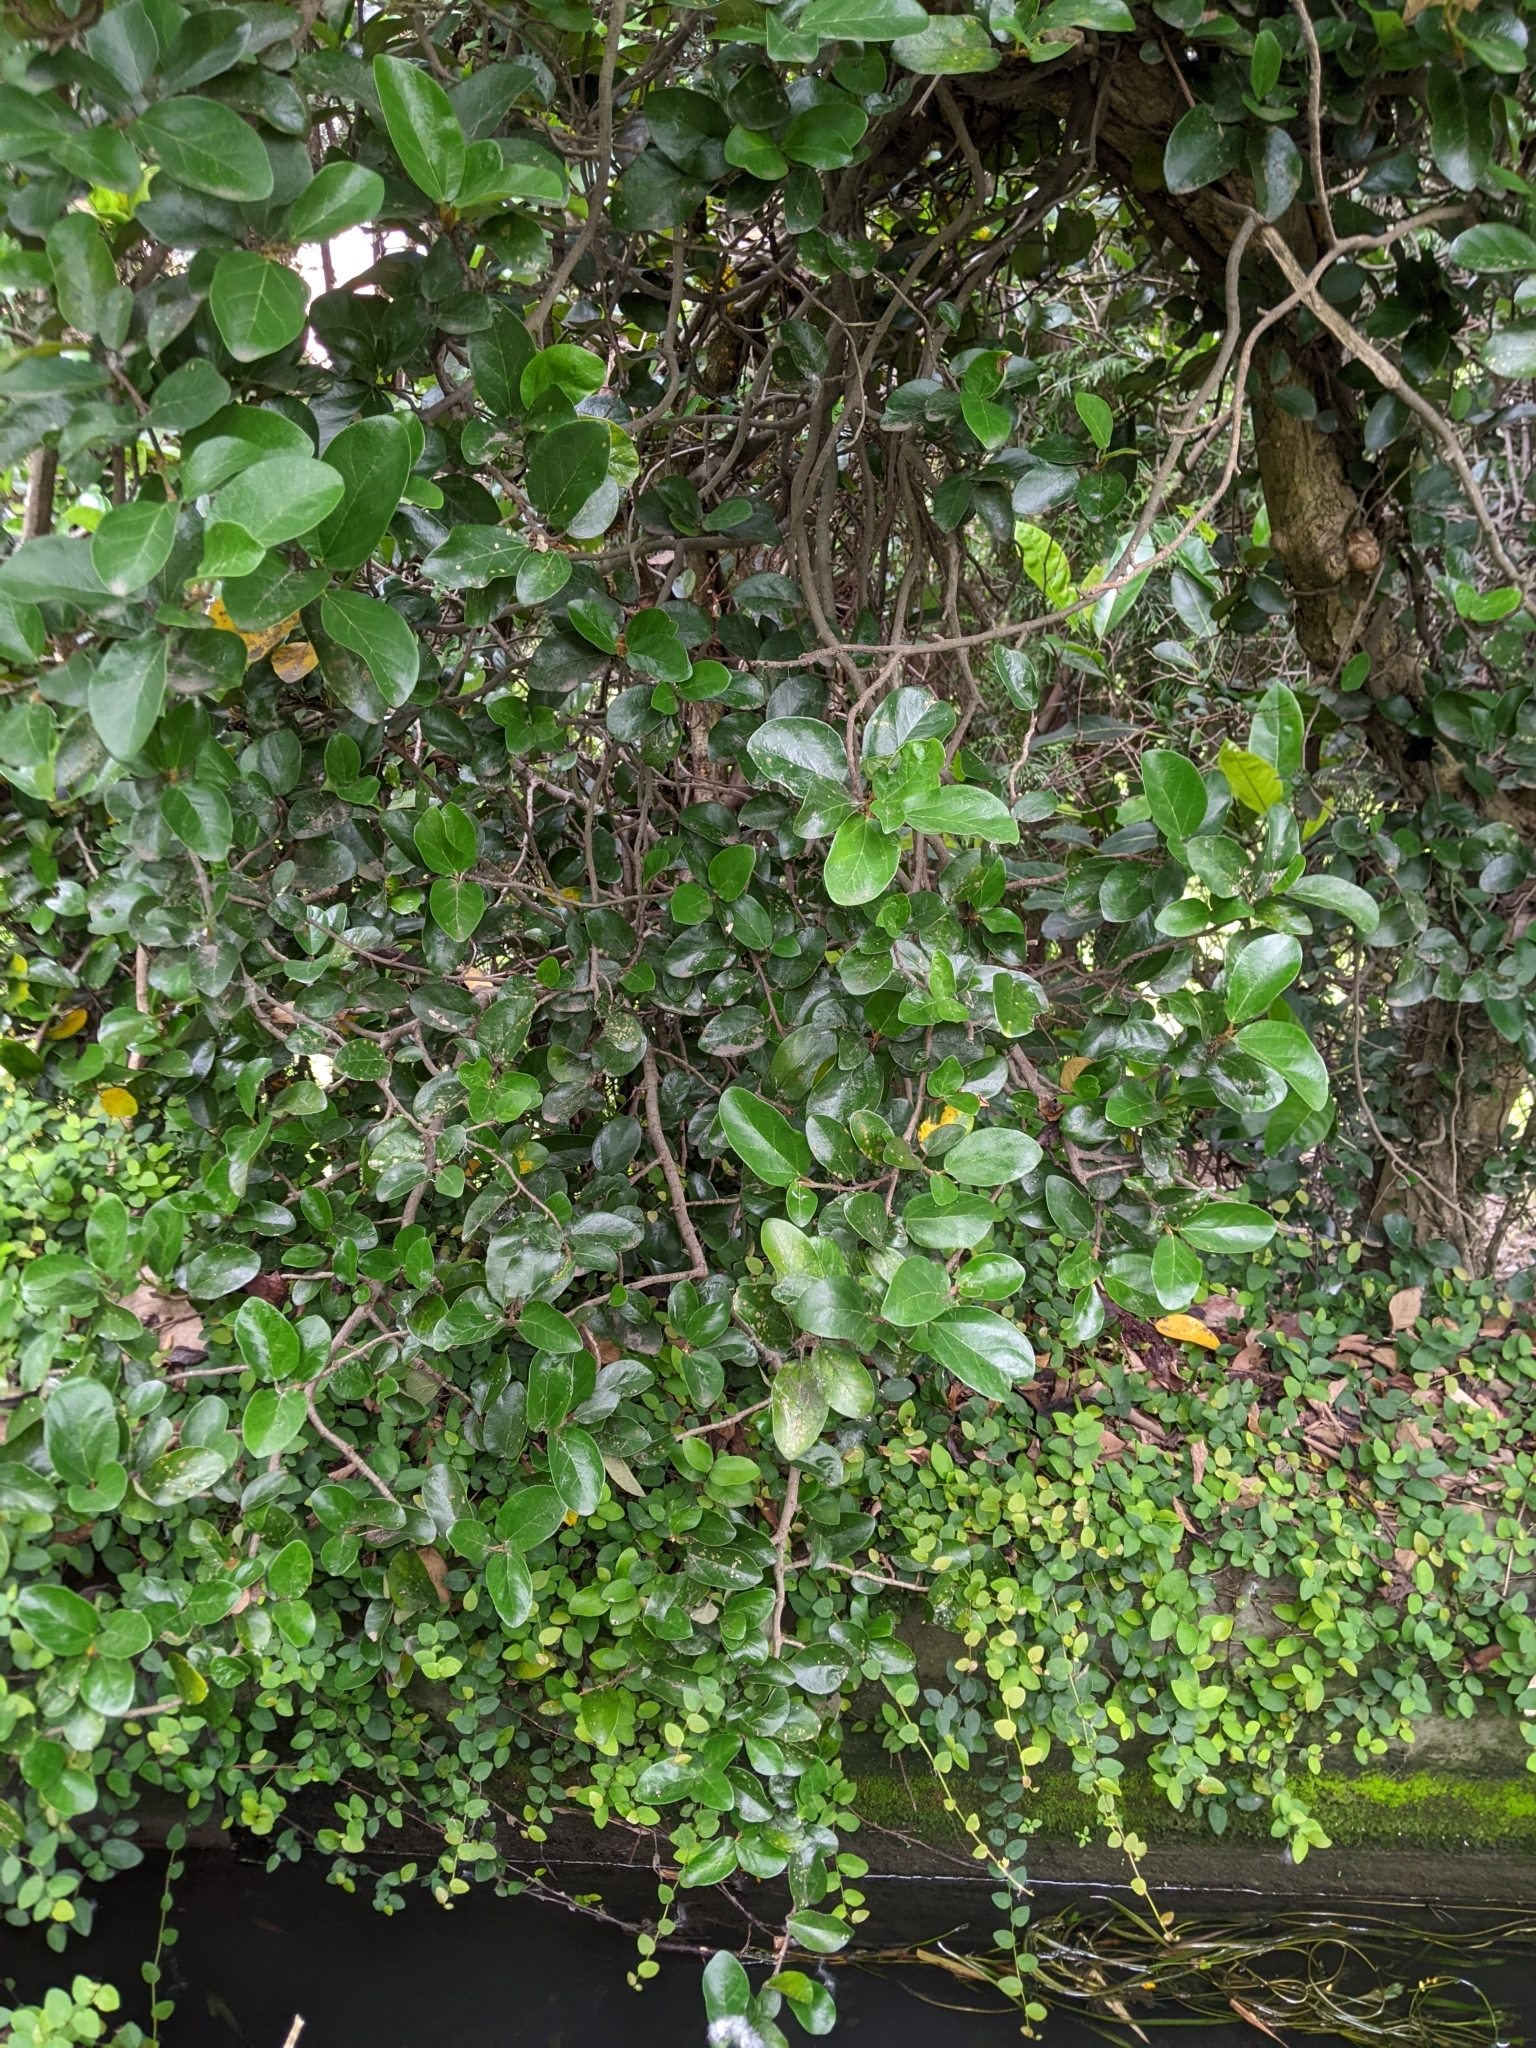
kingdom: Plantae
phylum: Tracheophyta
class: Magnoliopsida
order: Rosales
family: Moraceae
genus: Ficus
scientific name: Ficus pumila
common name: Climbingfig
